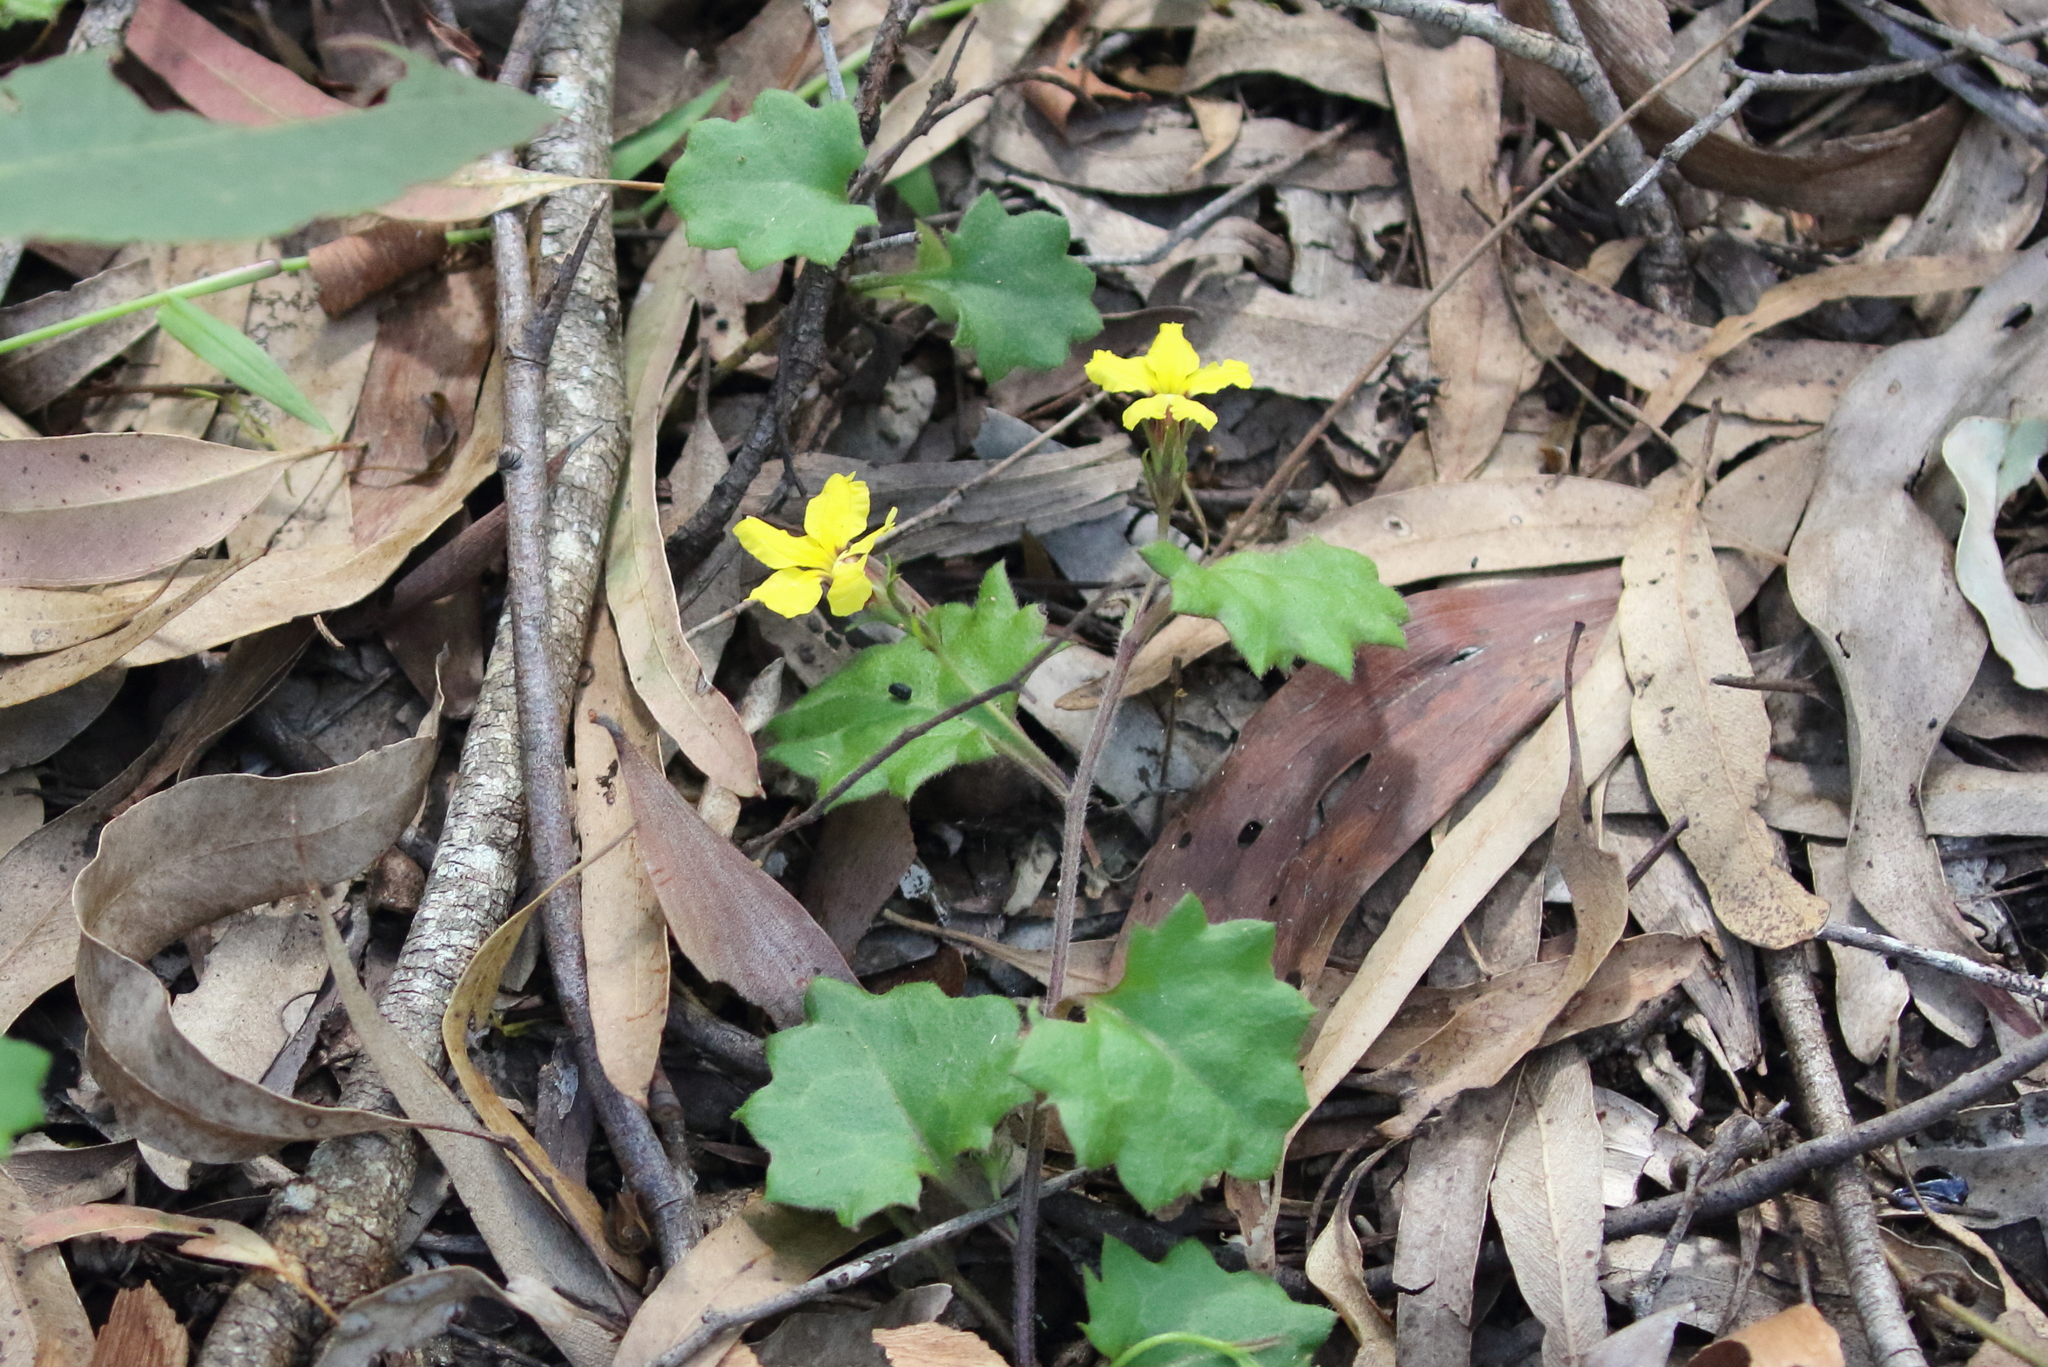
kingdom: Plantae
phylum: Tracheophyta
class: Magnoliopsida
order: Asterales
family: Goodeniaceae
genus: Goodenia
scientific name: Goodenia rotundifolia
